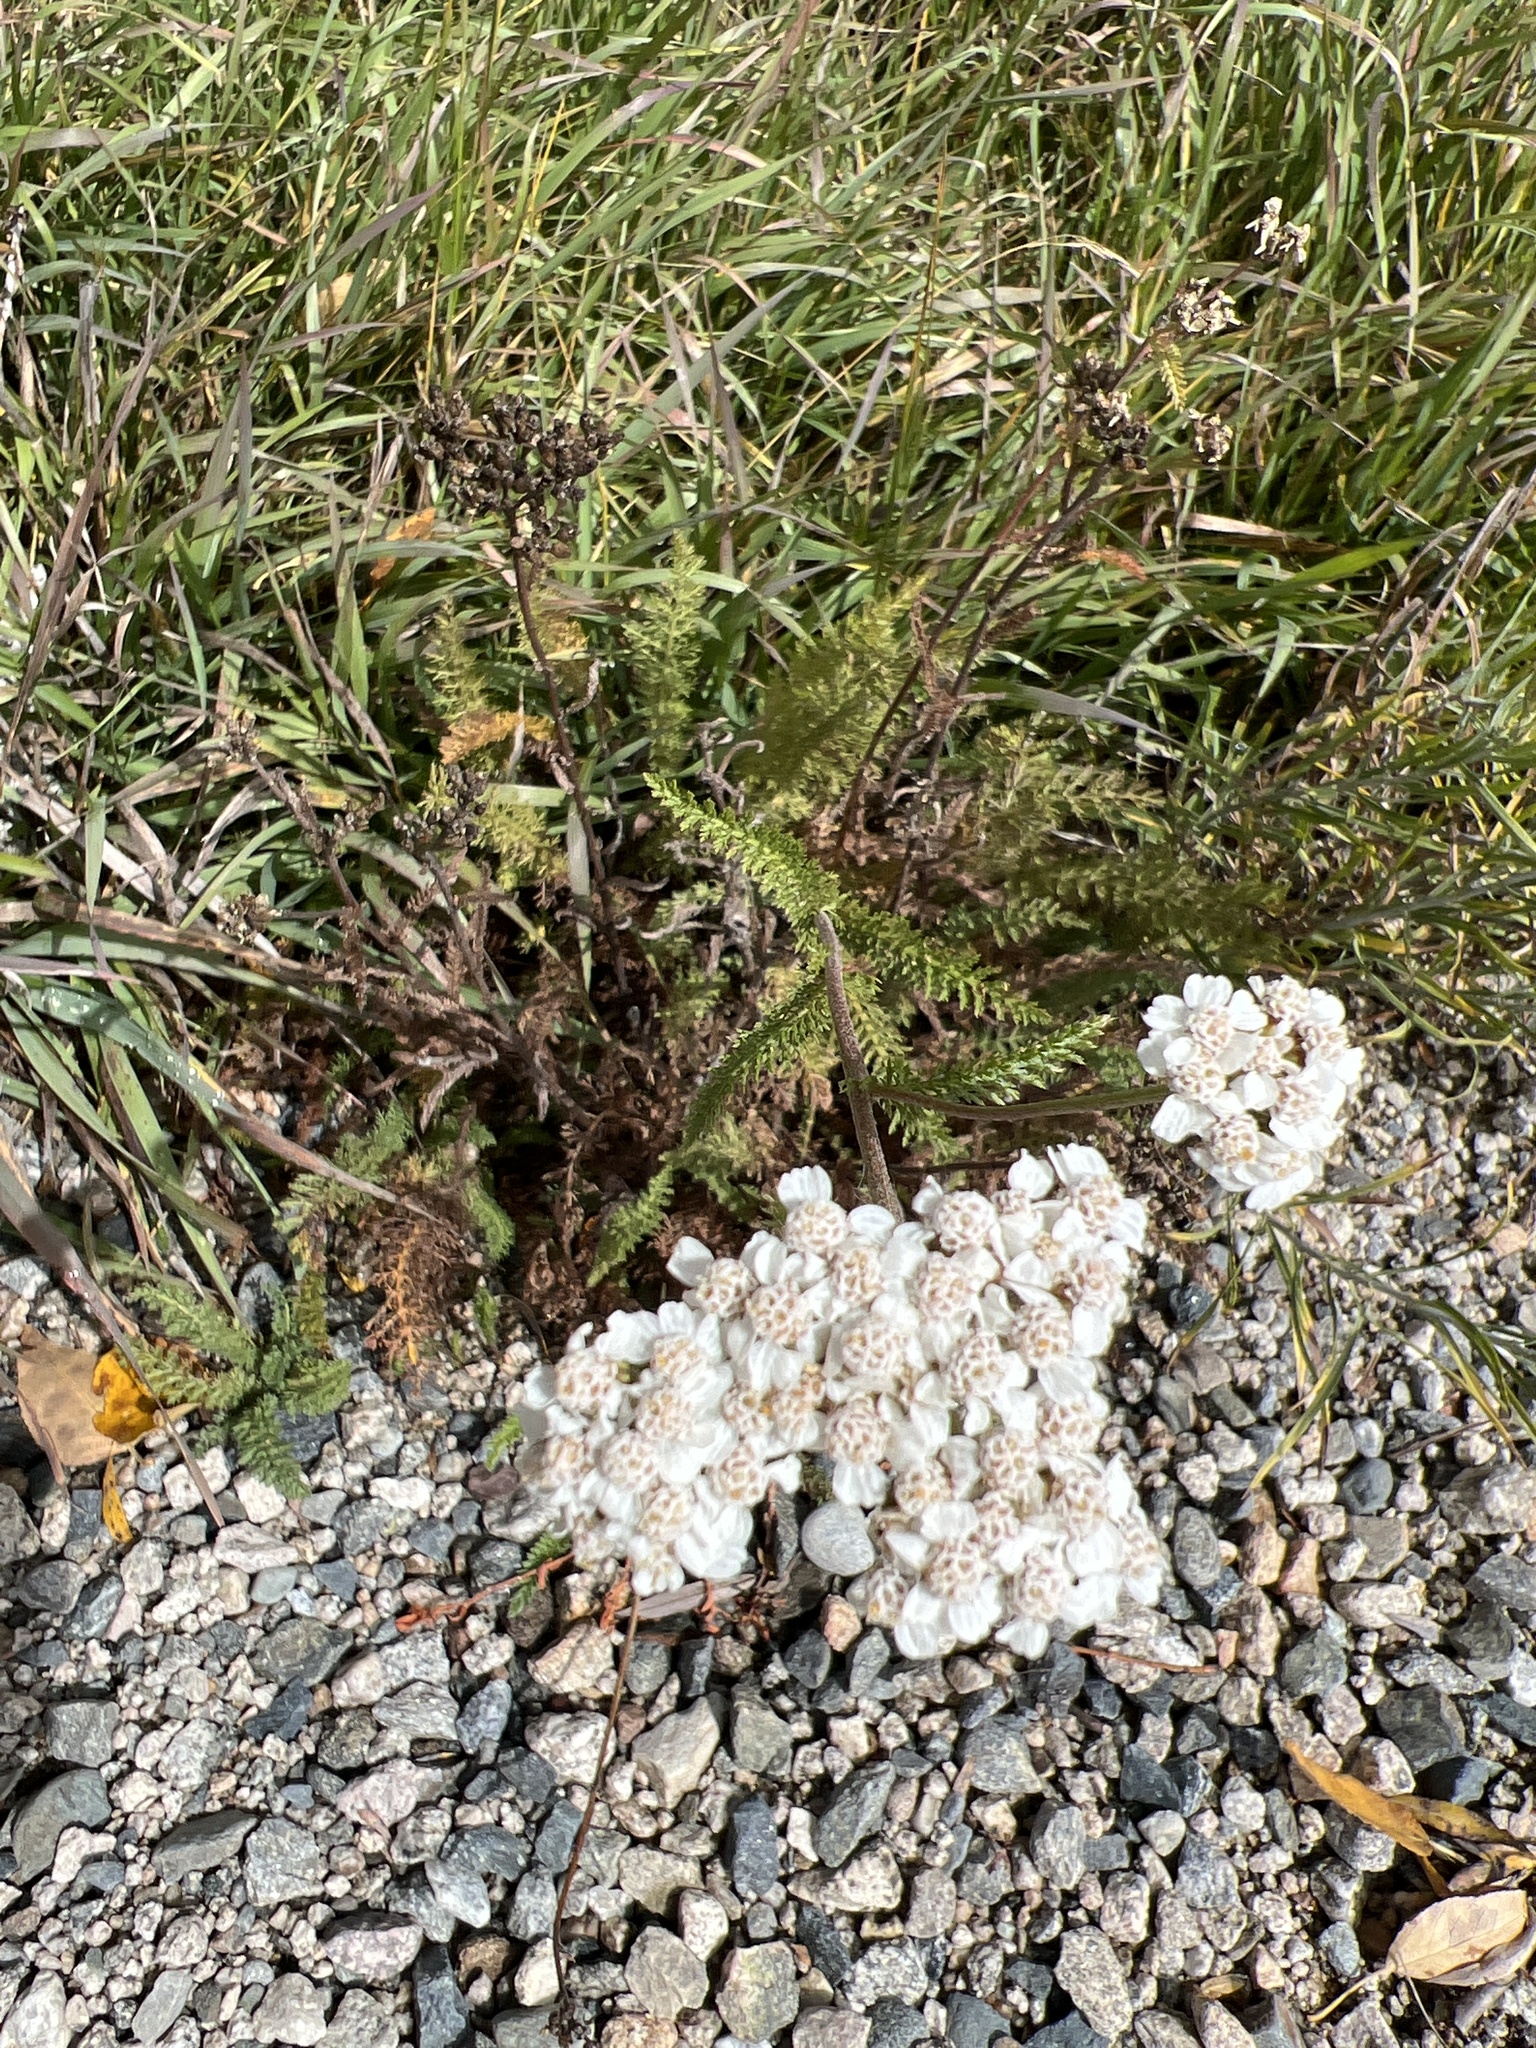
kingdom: Plantae
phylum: Tracheophyta
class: Magnoliopsida
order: Asterales
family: Asteraceae
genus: Achillea
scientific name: Achillea millefolium
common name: Yarrow
